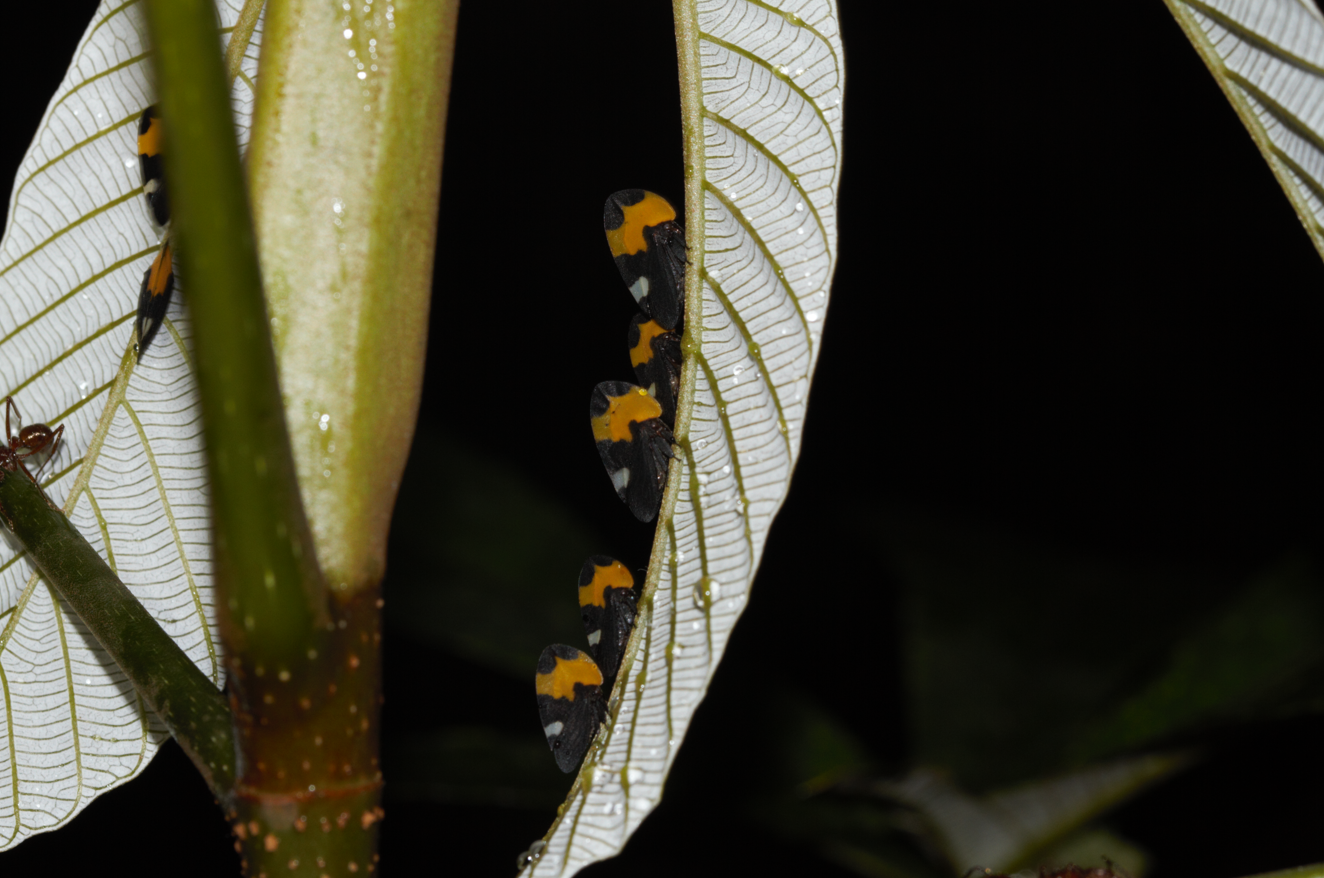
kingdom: Animalia
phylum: Arthropoda
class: Insecta
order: Hemiptera
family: Membracidae
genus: Phyllotropis
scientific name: Phyllotropis fasciata
